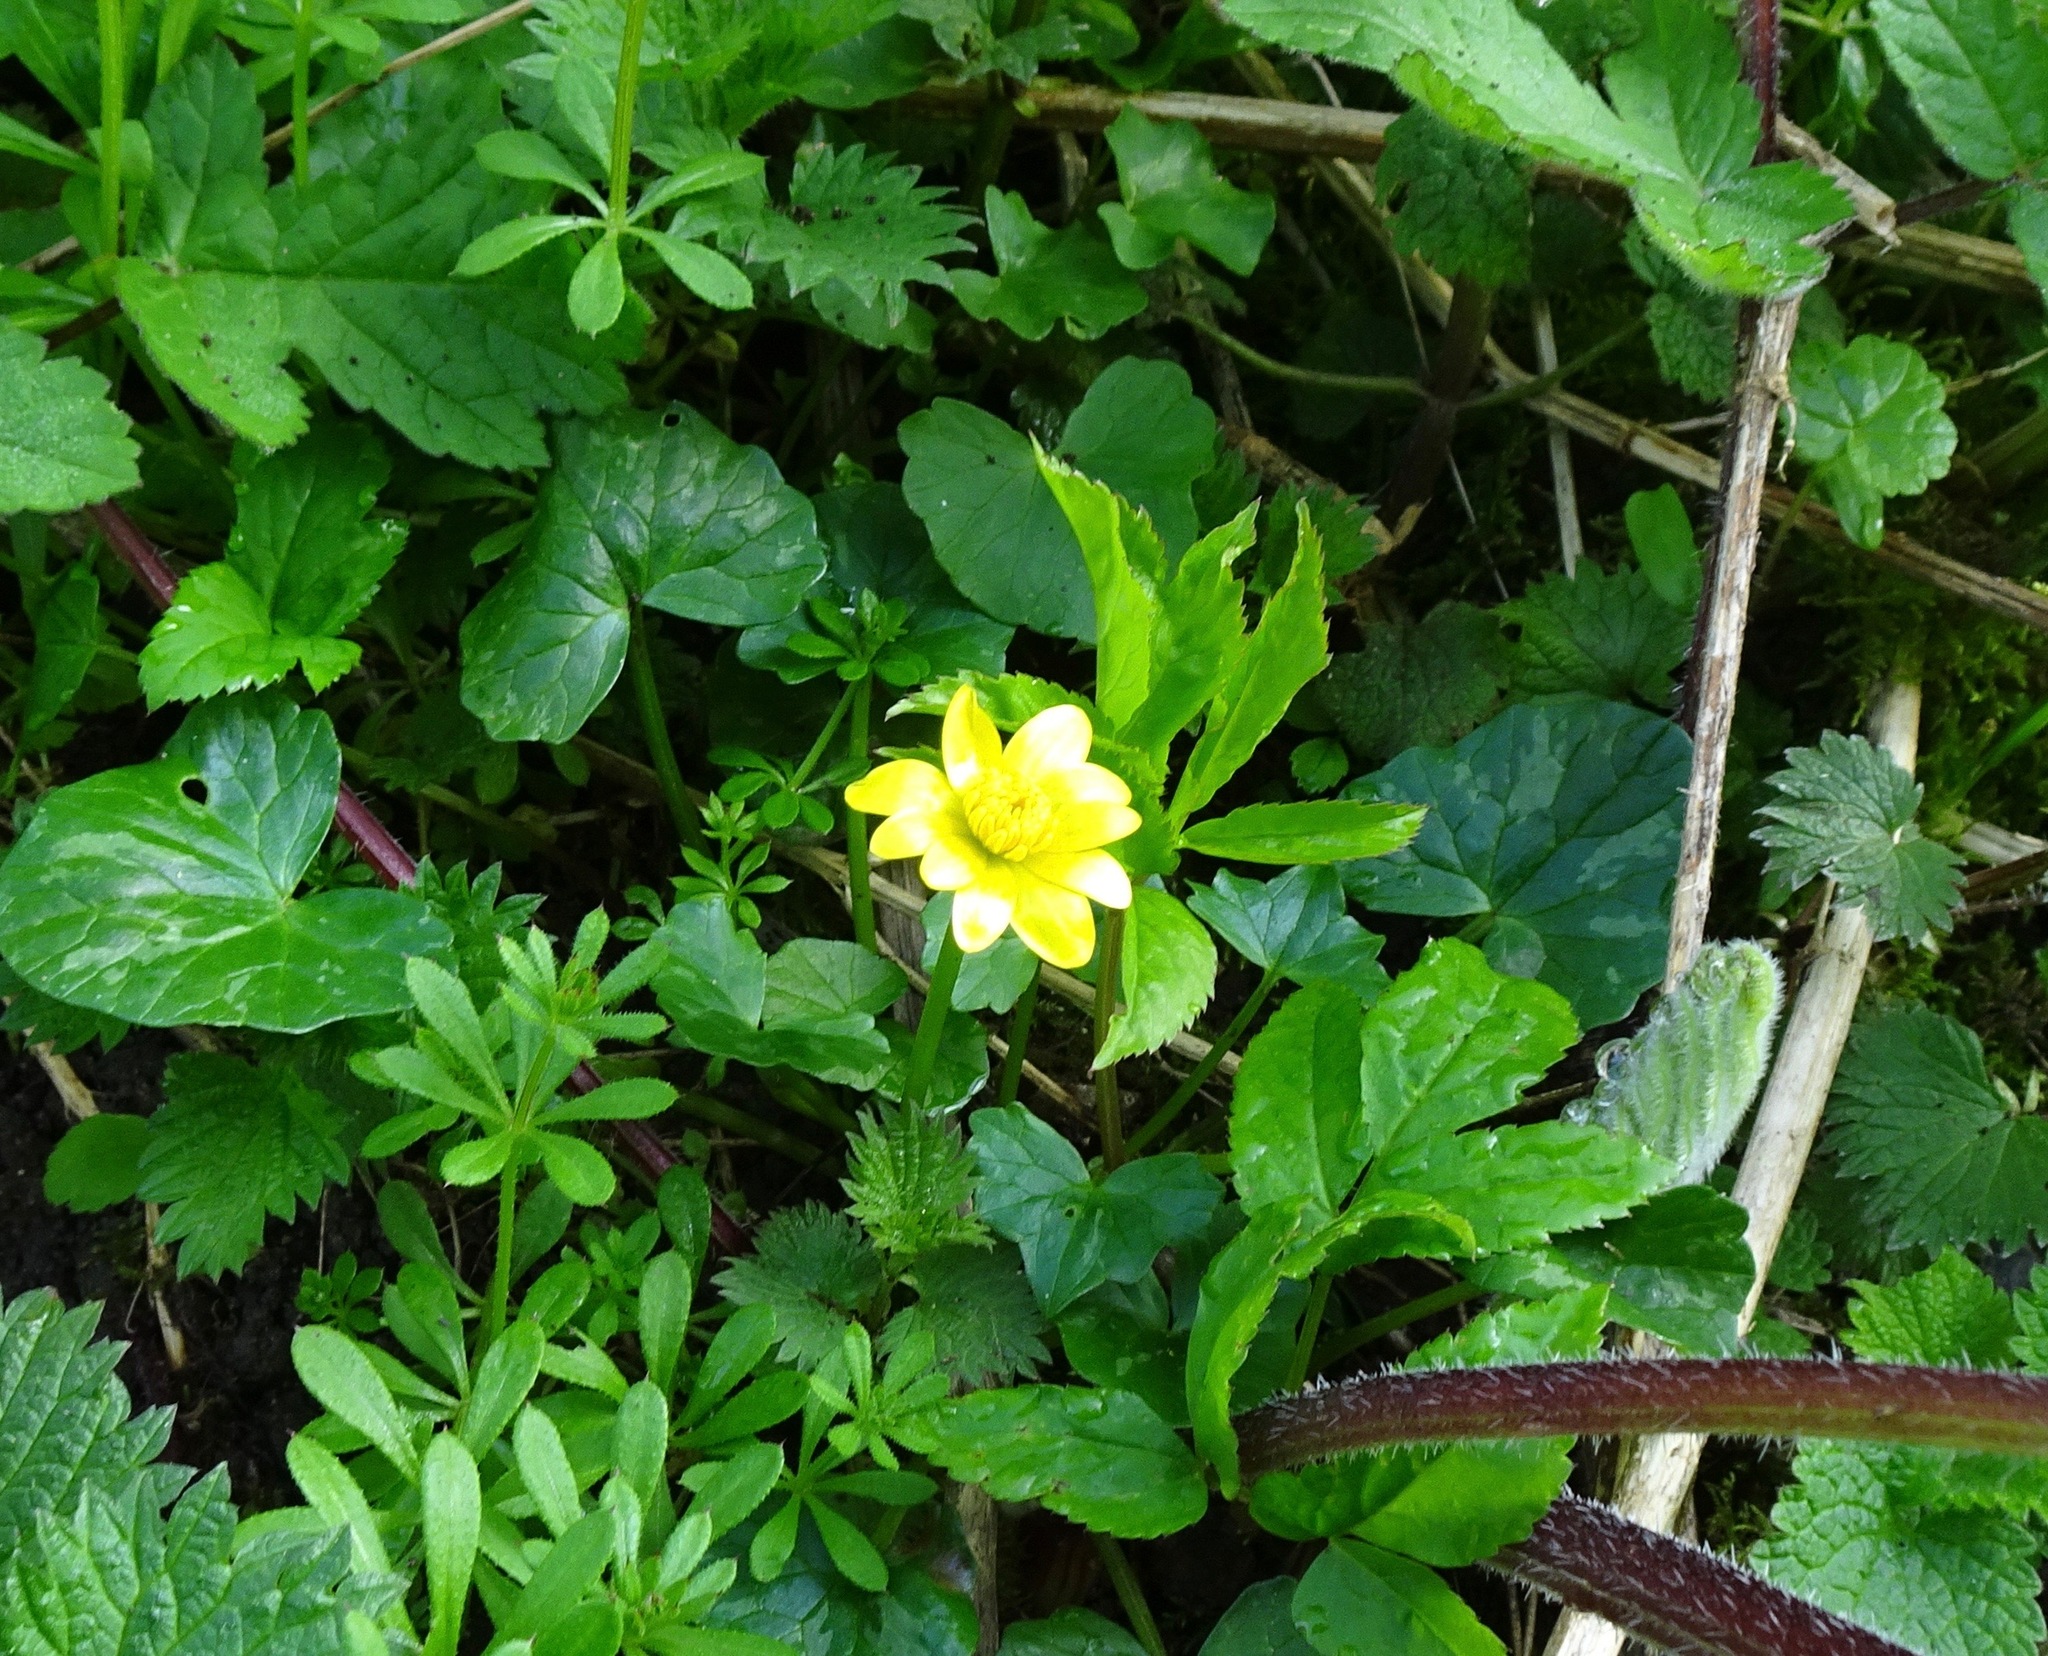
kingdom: Plantae
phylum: Tracheophyta
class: Magnoliopsida
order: Ranunculales
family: Ranunculaceae
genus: Ficaria
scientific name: Ficaria verna
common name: Lesser celandine
